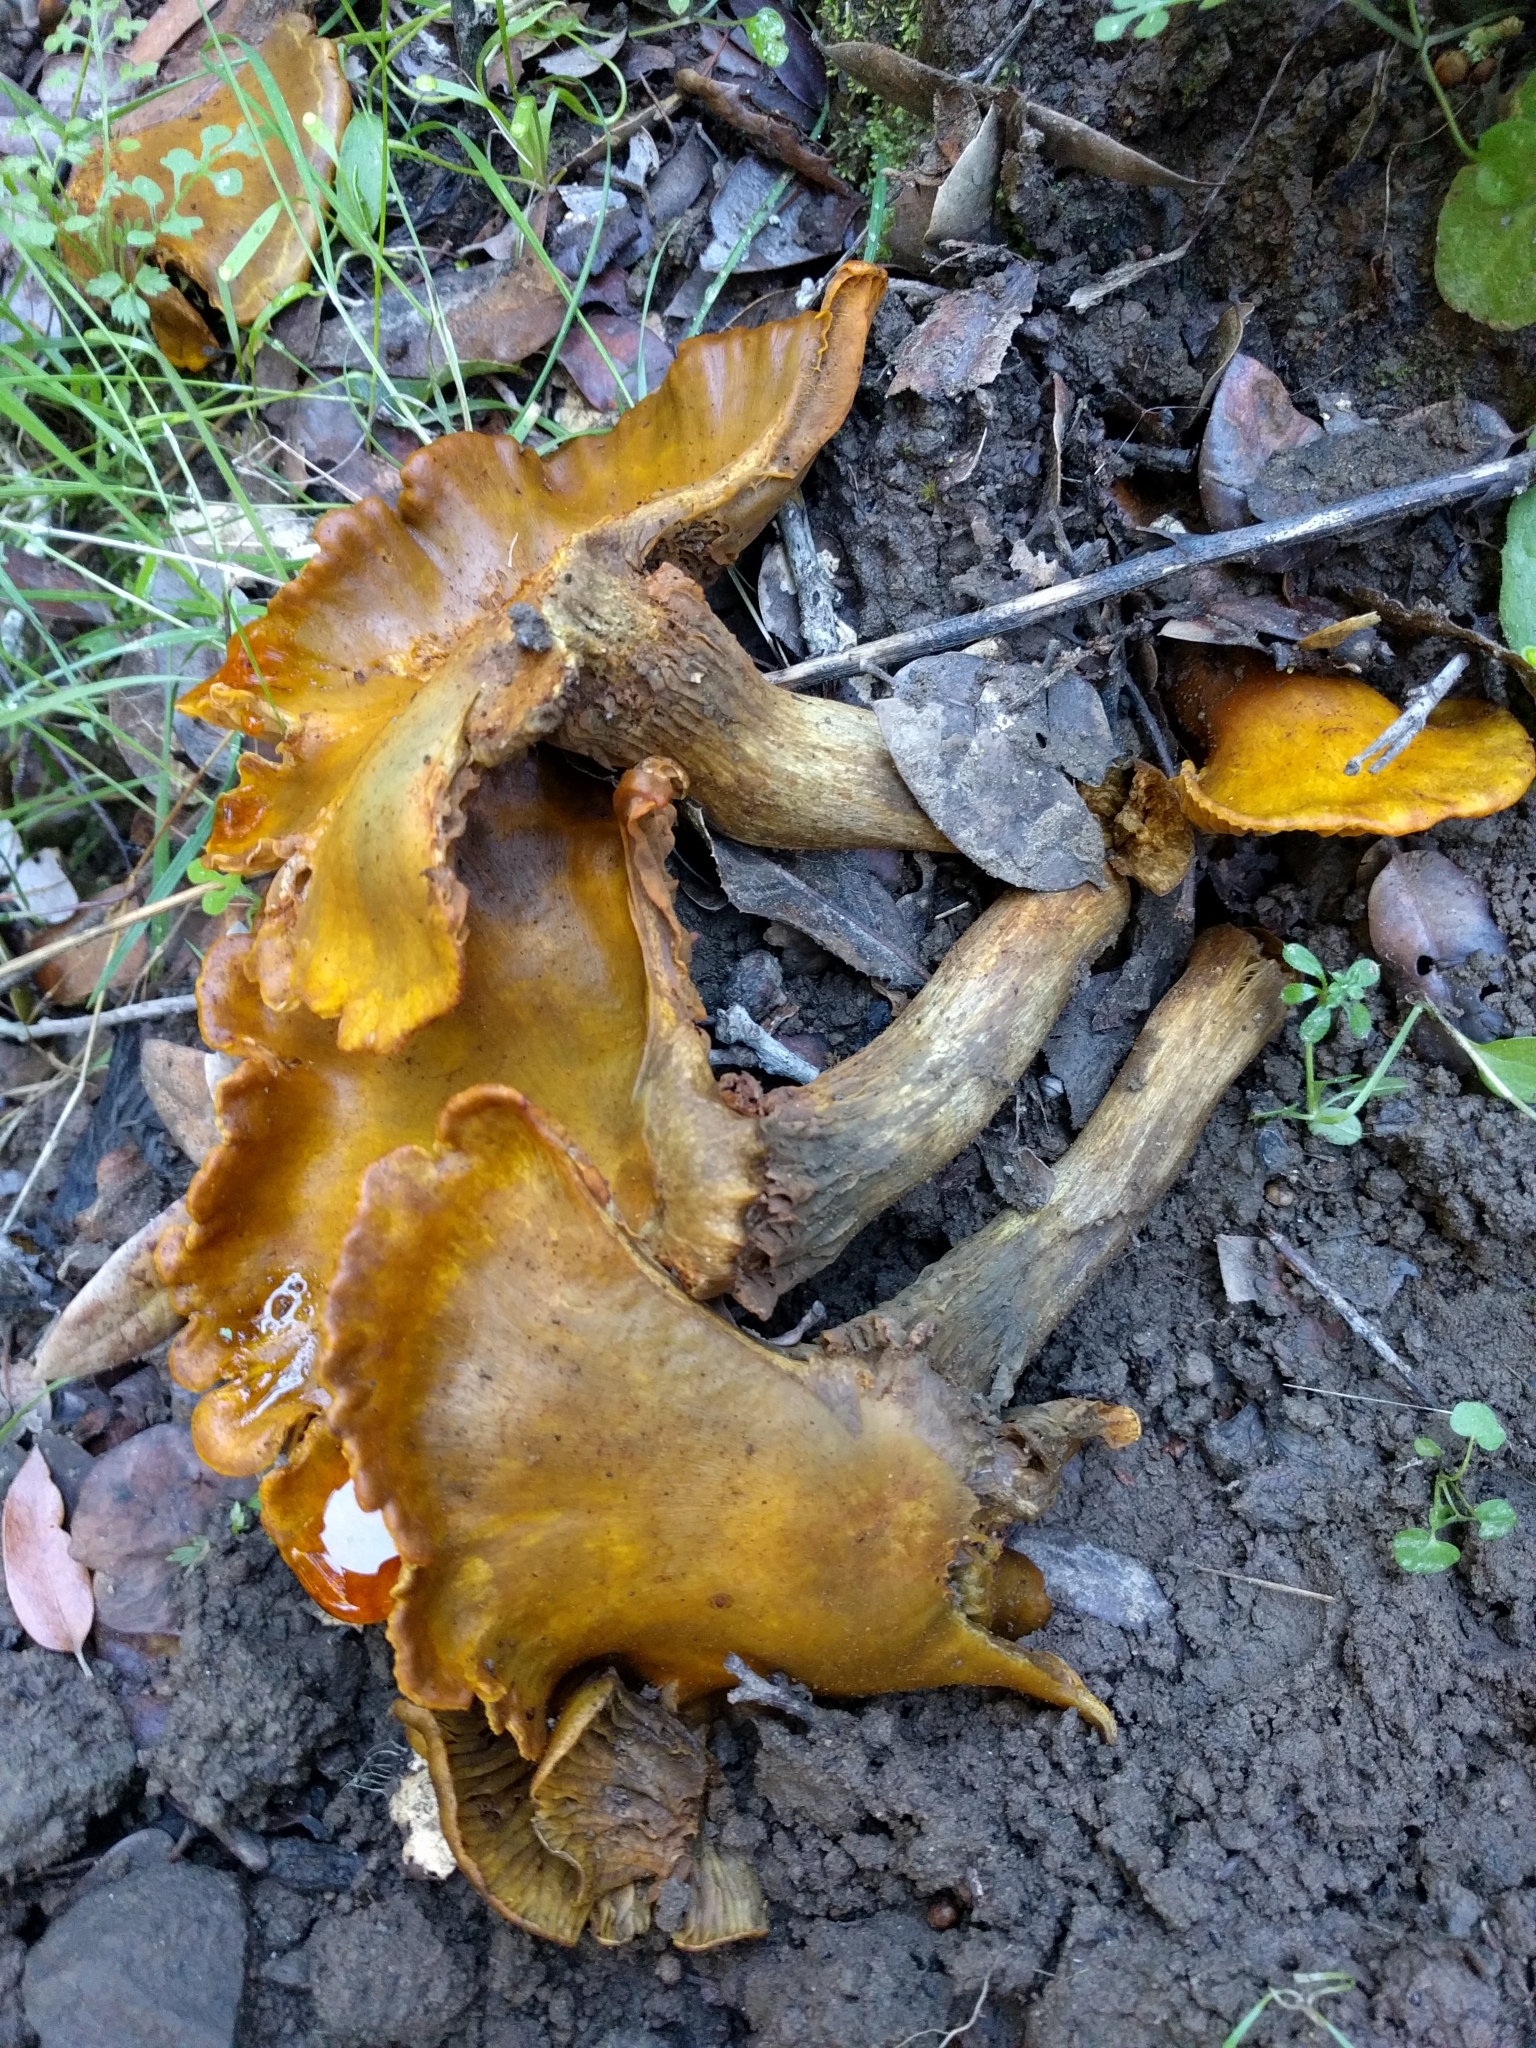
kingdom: Fungi
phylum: Basidiomycota
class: Agaricomycetes
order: Agaricales
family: Omphalotaceae
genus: Omphalotus
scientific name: Omphalotus olivascens
